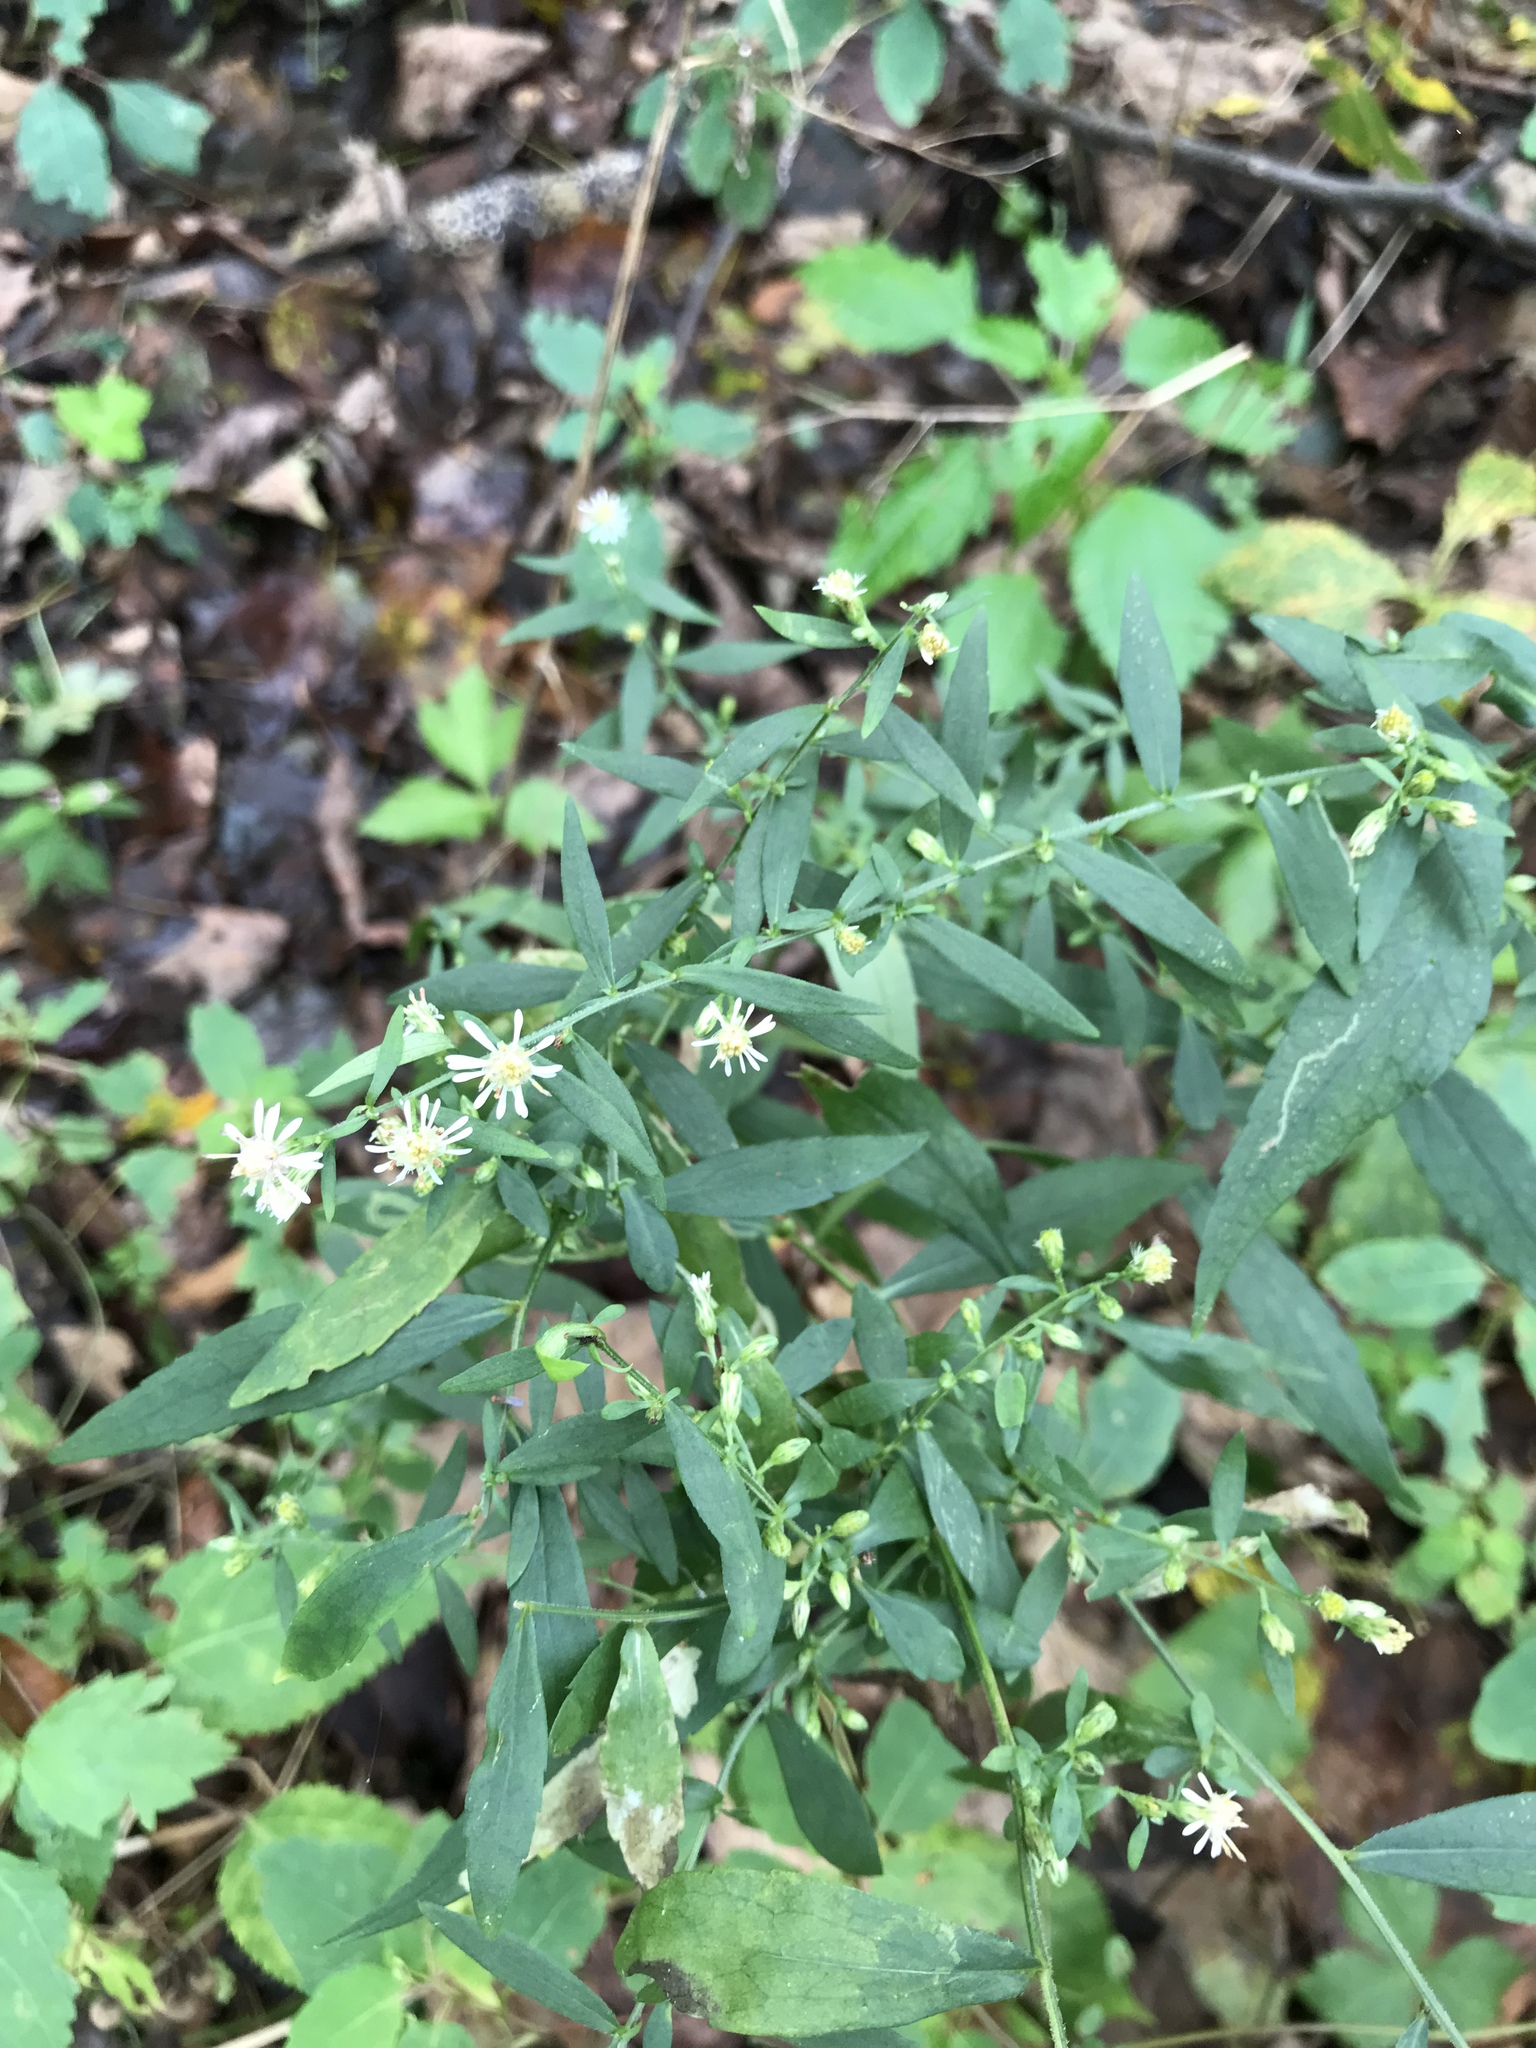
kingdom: Plantae
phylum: Tracheophyta
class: Magnoliopsida
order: Asterales
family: Asteraceae
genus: Symphyotrichum
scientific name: Symphyotrichum lateriflorum
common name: Calico aster
